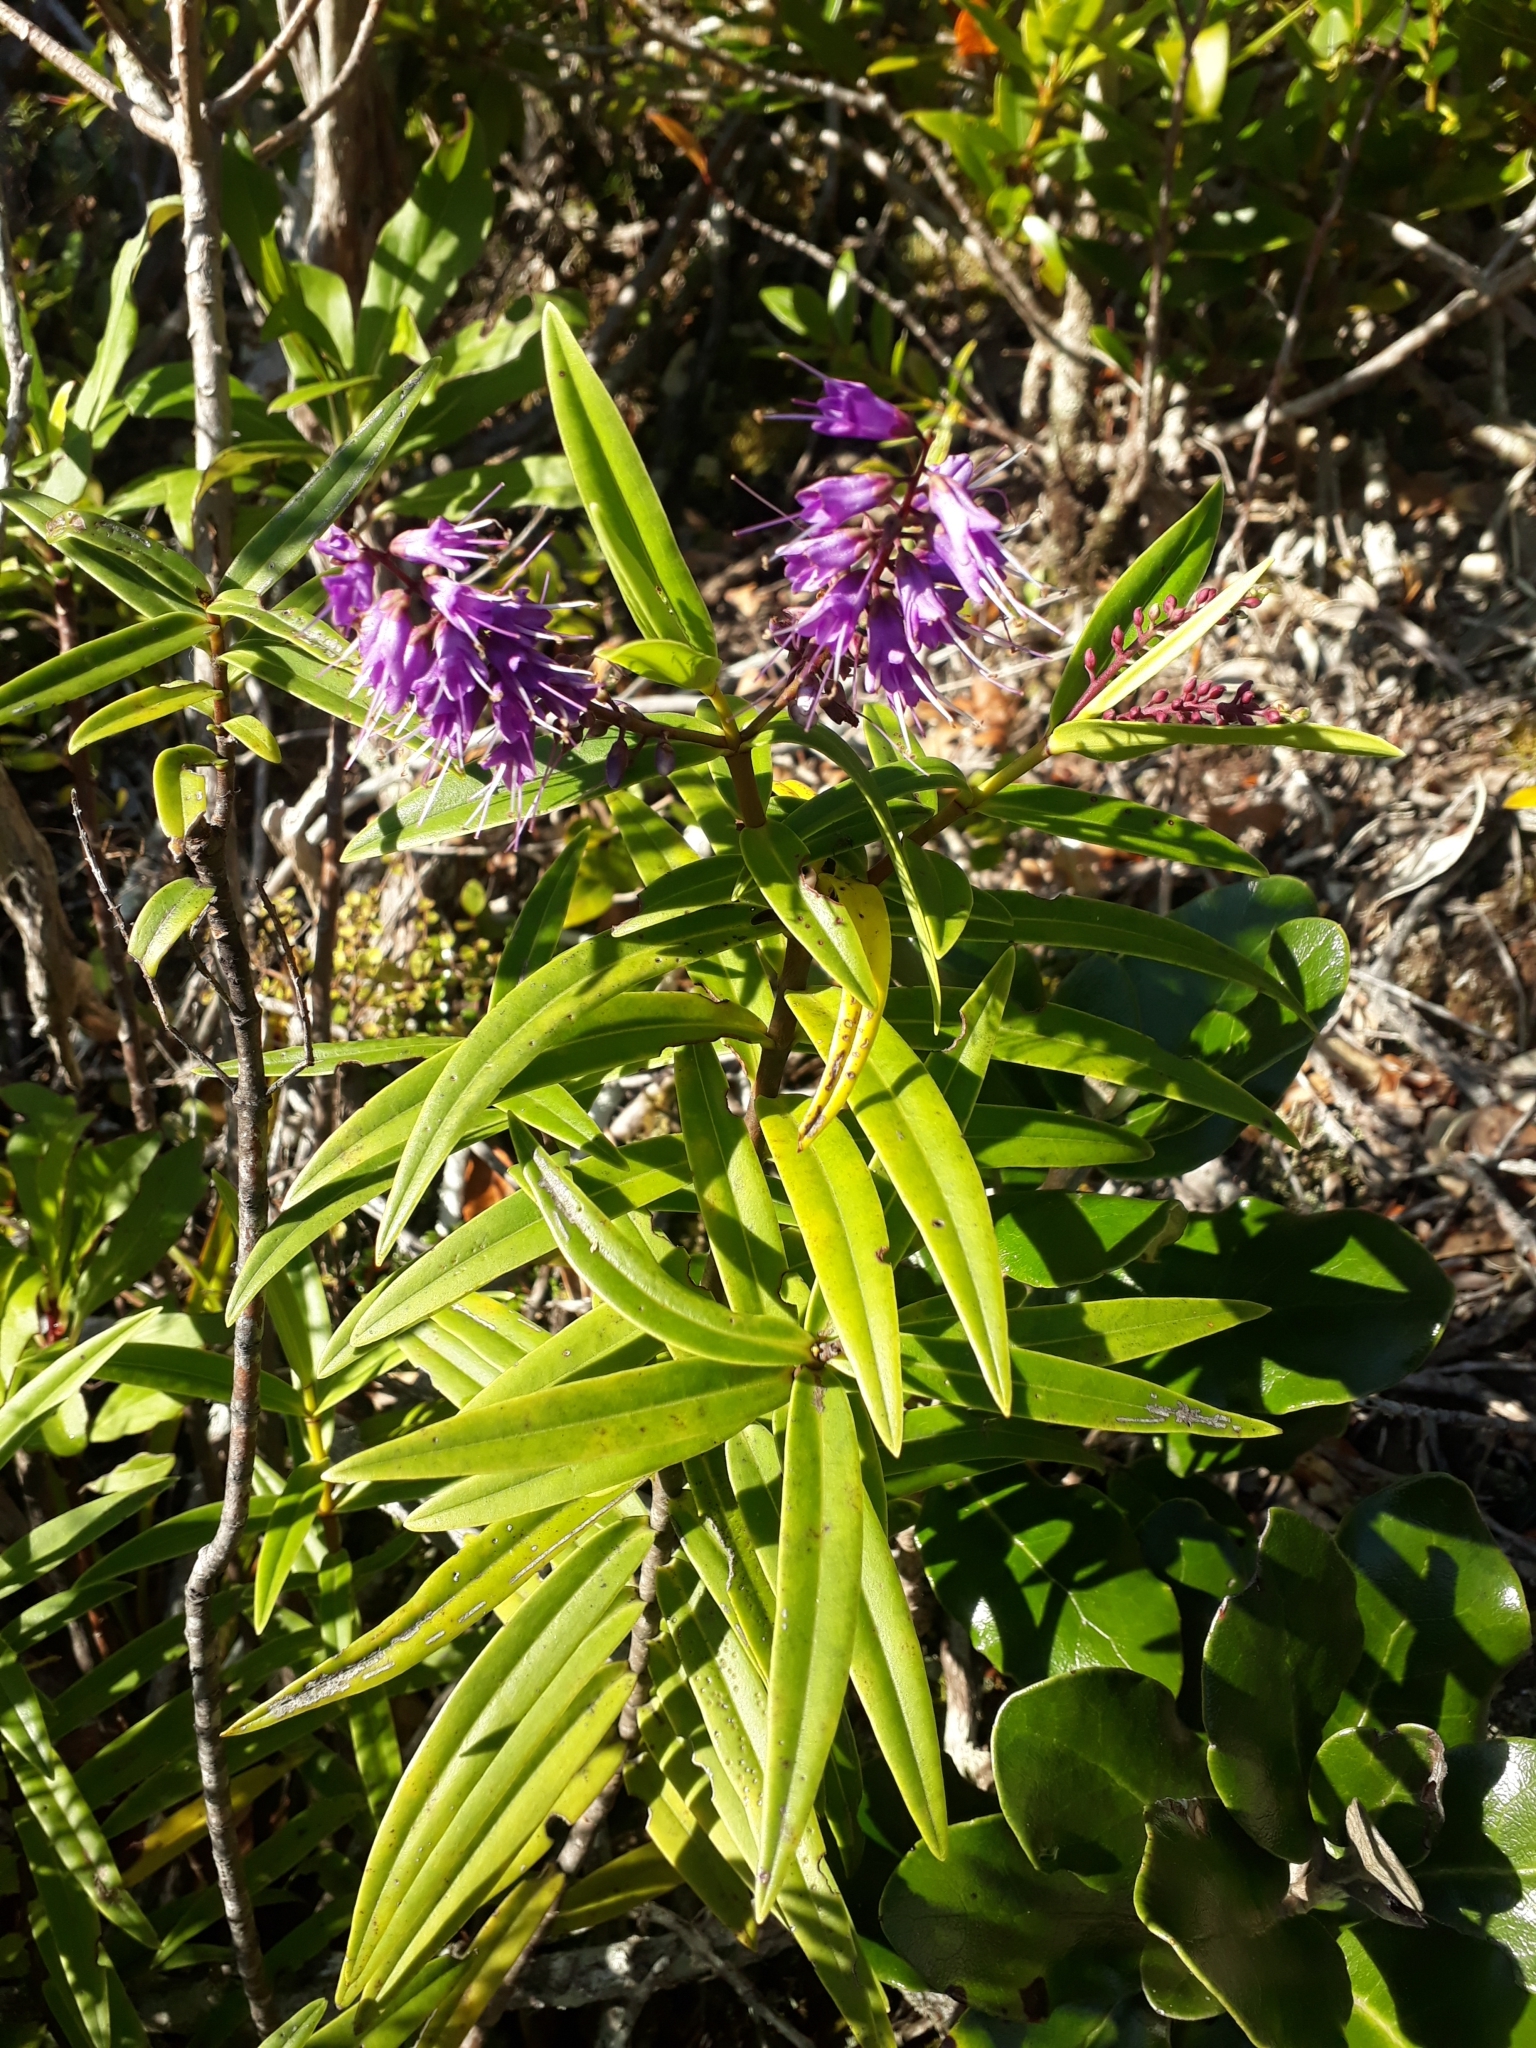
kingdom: Plantae
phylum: Tracheophyta
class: Magnoliopsida
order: Lamiales
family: Plantaginaceae
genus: Veronica
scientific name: Veronica macrocarpa
